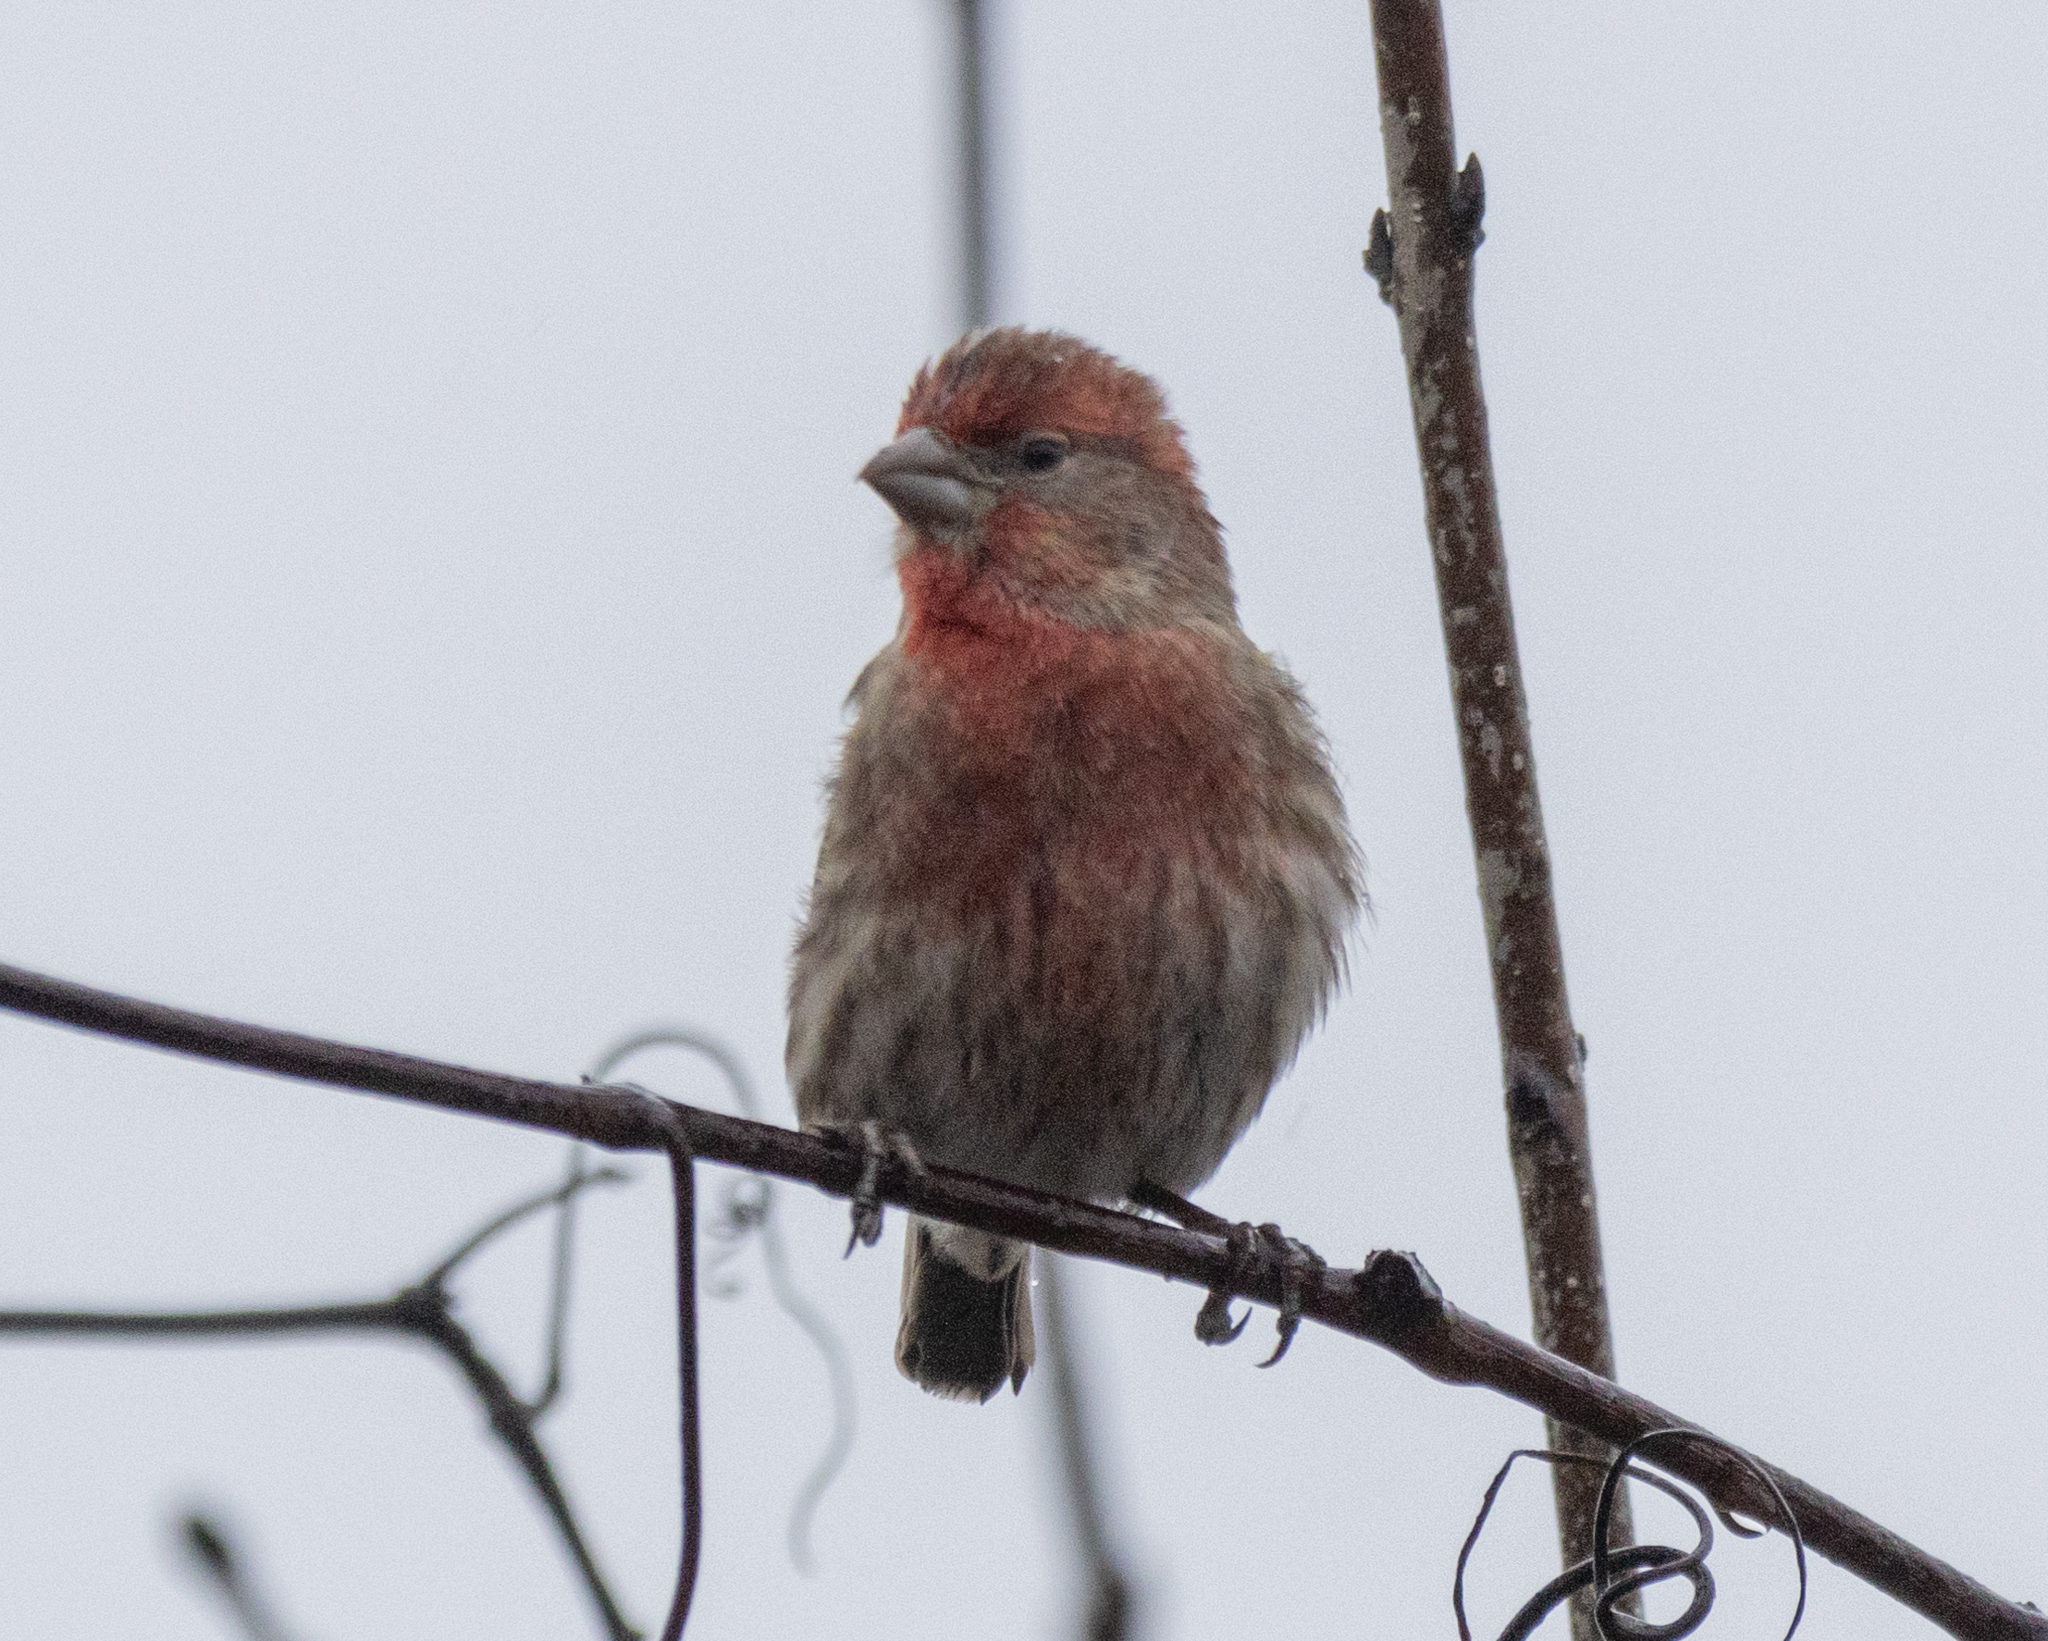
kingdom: Animalia
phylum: Chordata
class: Aves
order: Passeriformes
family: Fringillidae
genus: Haemorhous
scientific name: Haemorhous mexicanus
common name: House finch
